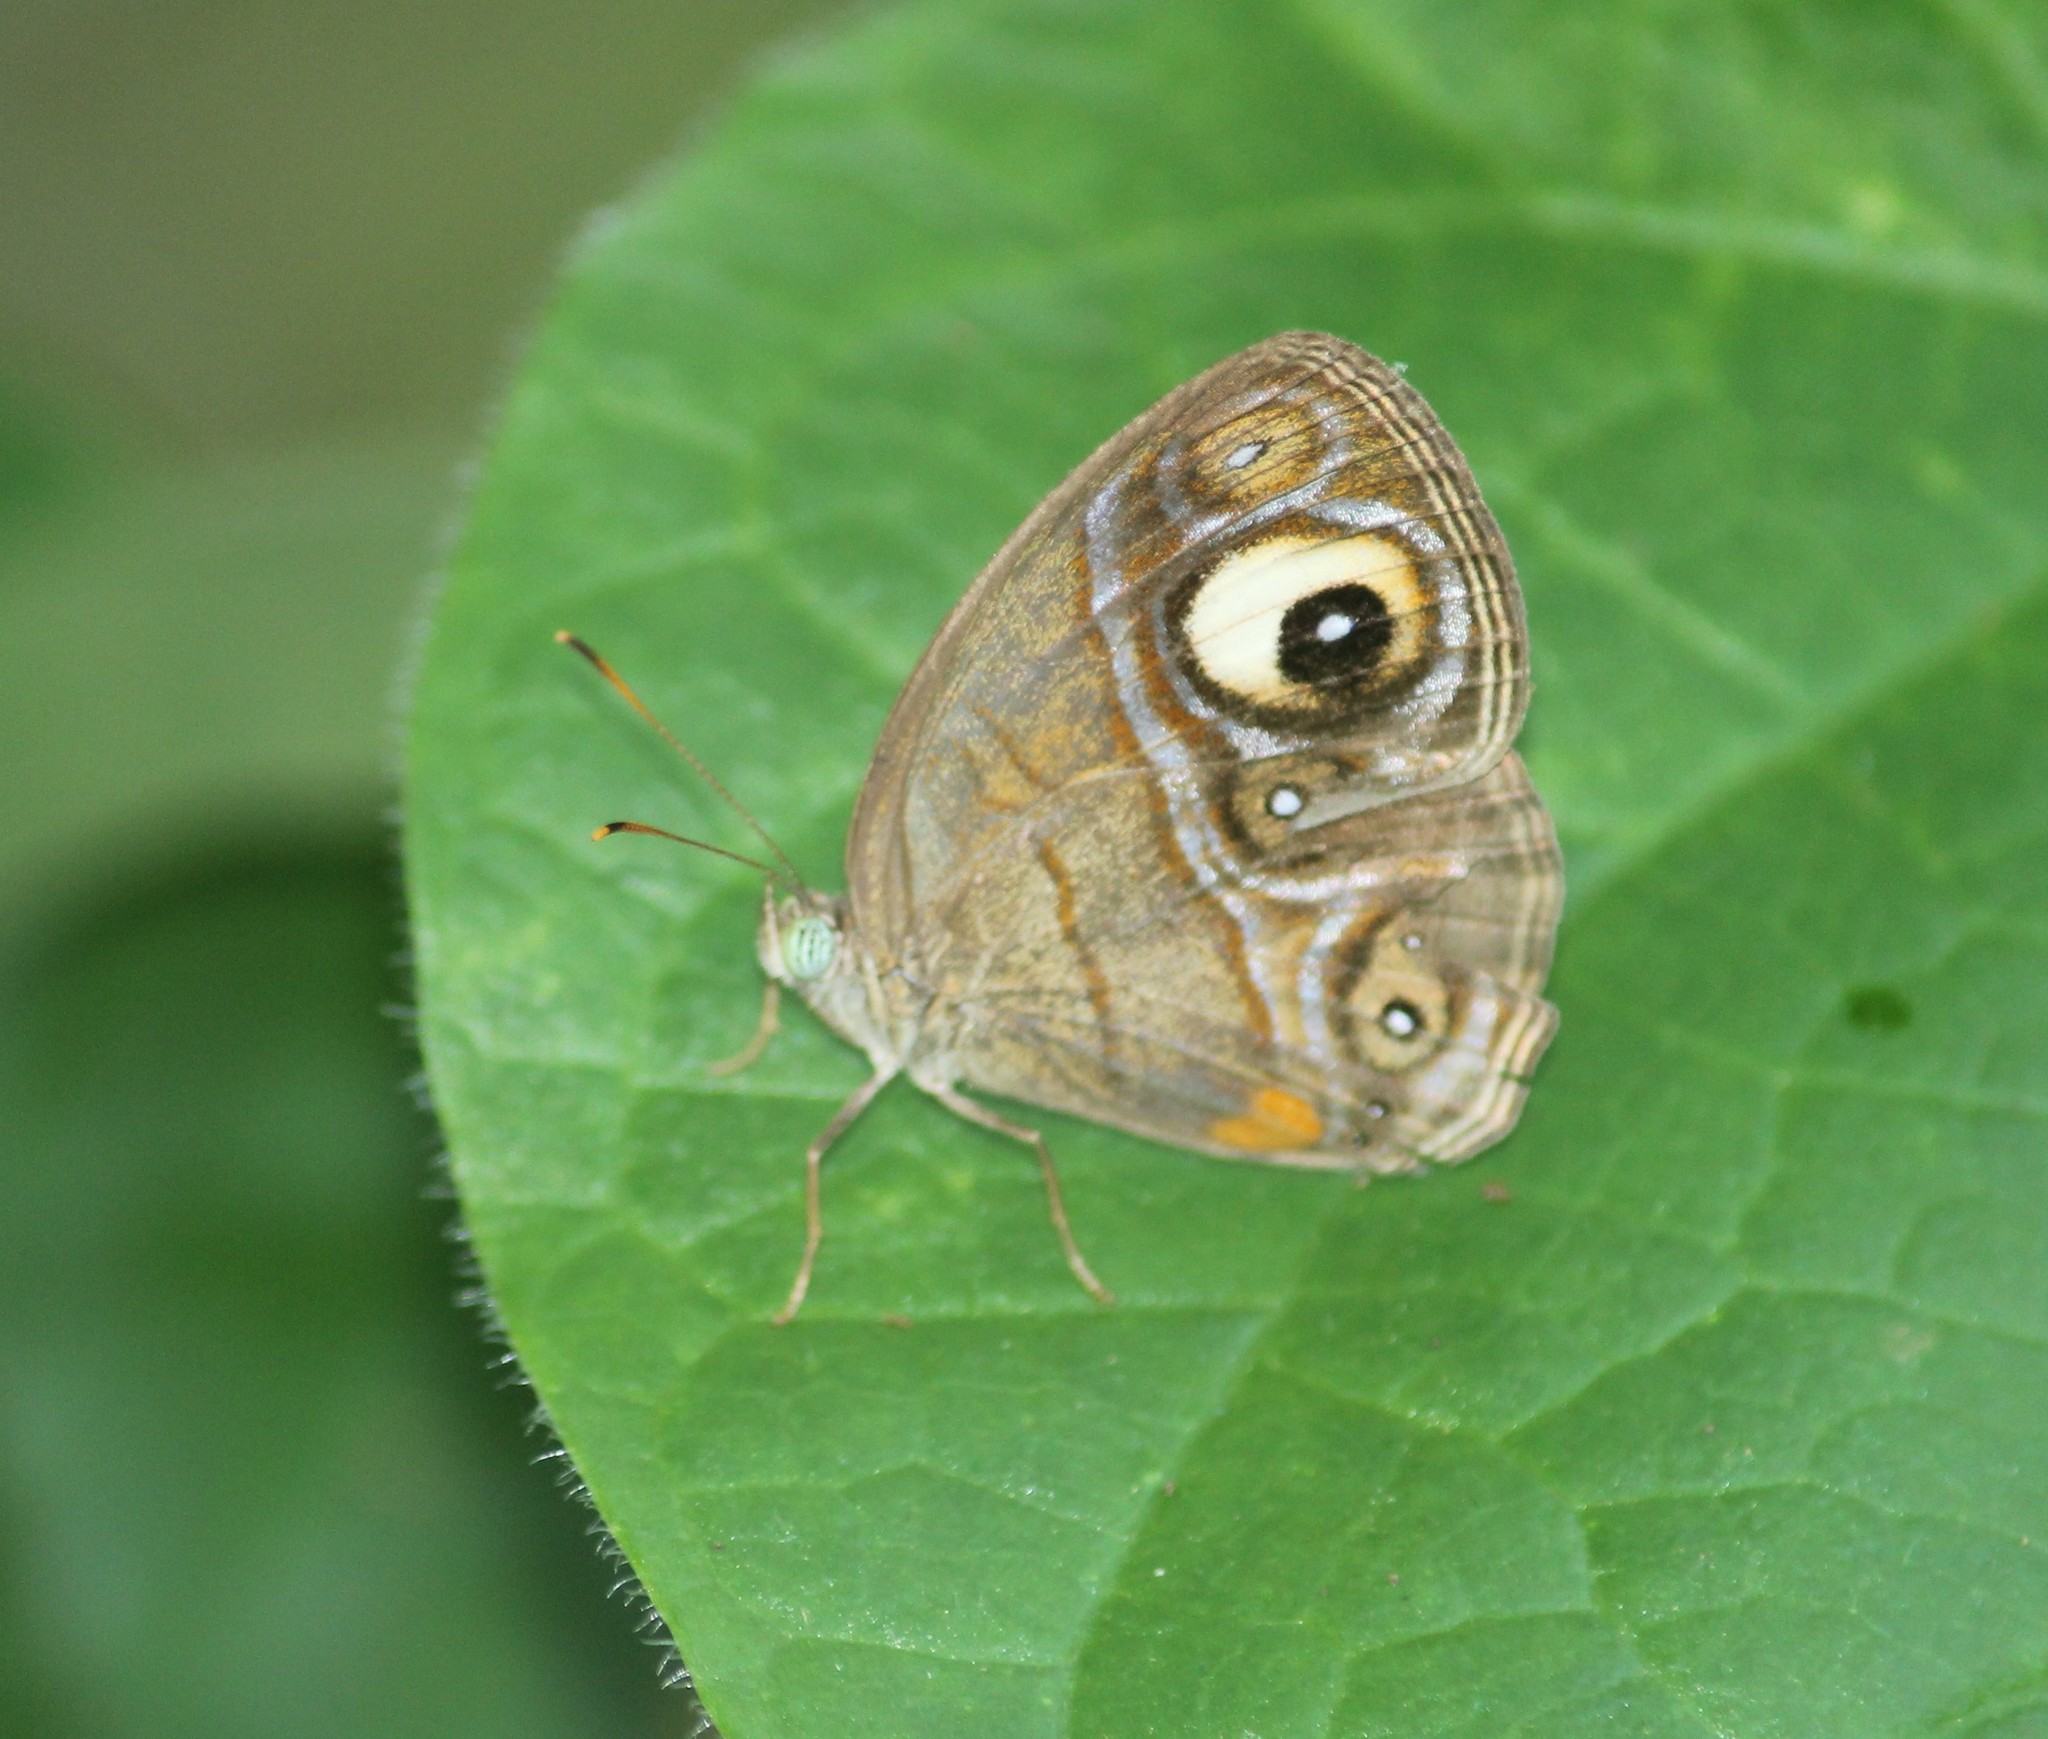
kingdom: Animalia
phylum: Arthropoda
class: Insecta
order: Lepidoptera
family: Nymphalidae
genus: Mycalesis
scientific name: Mycalesis patnia
